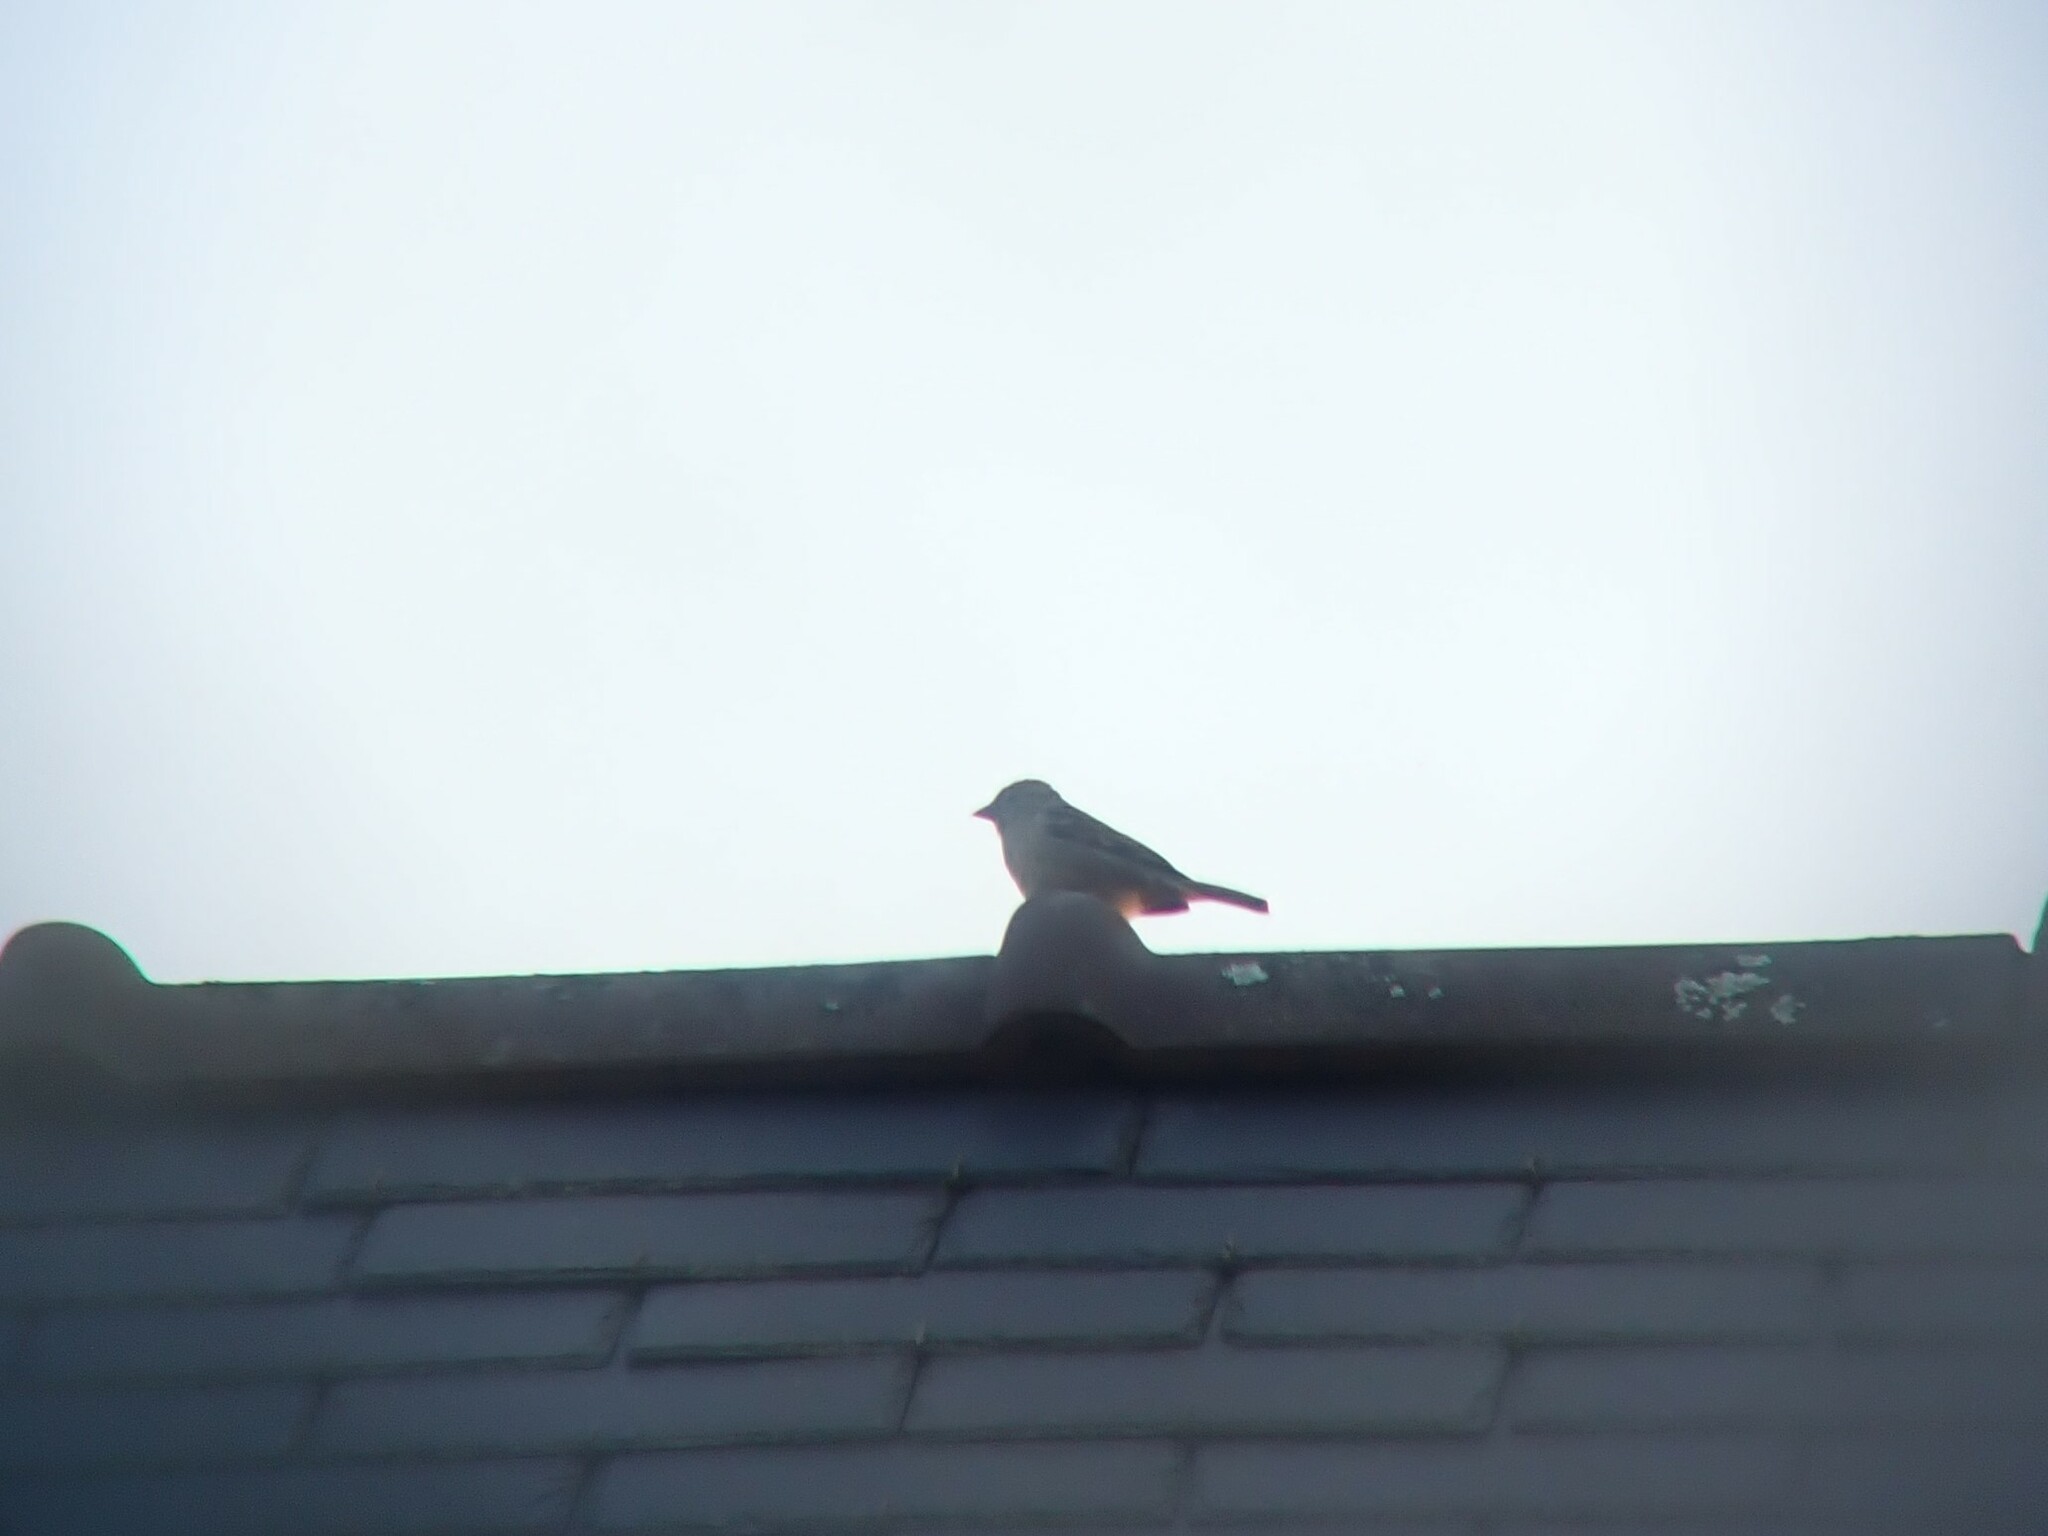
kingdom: Animalia
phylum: Chordata
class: Aves
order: Passeriformes
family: Passeridae
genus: Passer
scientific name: Passer domesticus
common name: House sparrow
